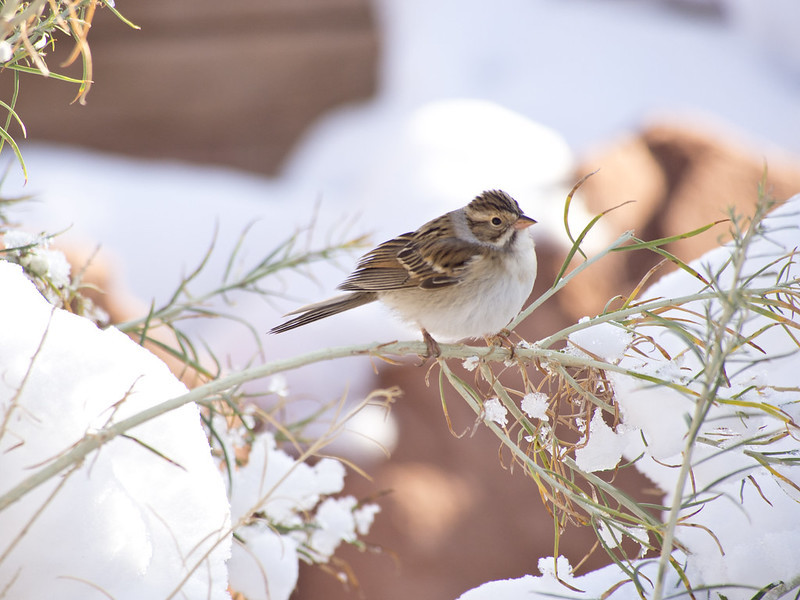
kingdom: Animalia
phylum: Chordata
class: Aves
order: Passeriformes
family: Passerellidae
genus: Spizella
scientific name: Spizella pallida
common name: Clay-colored sparrow
